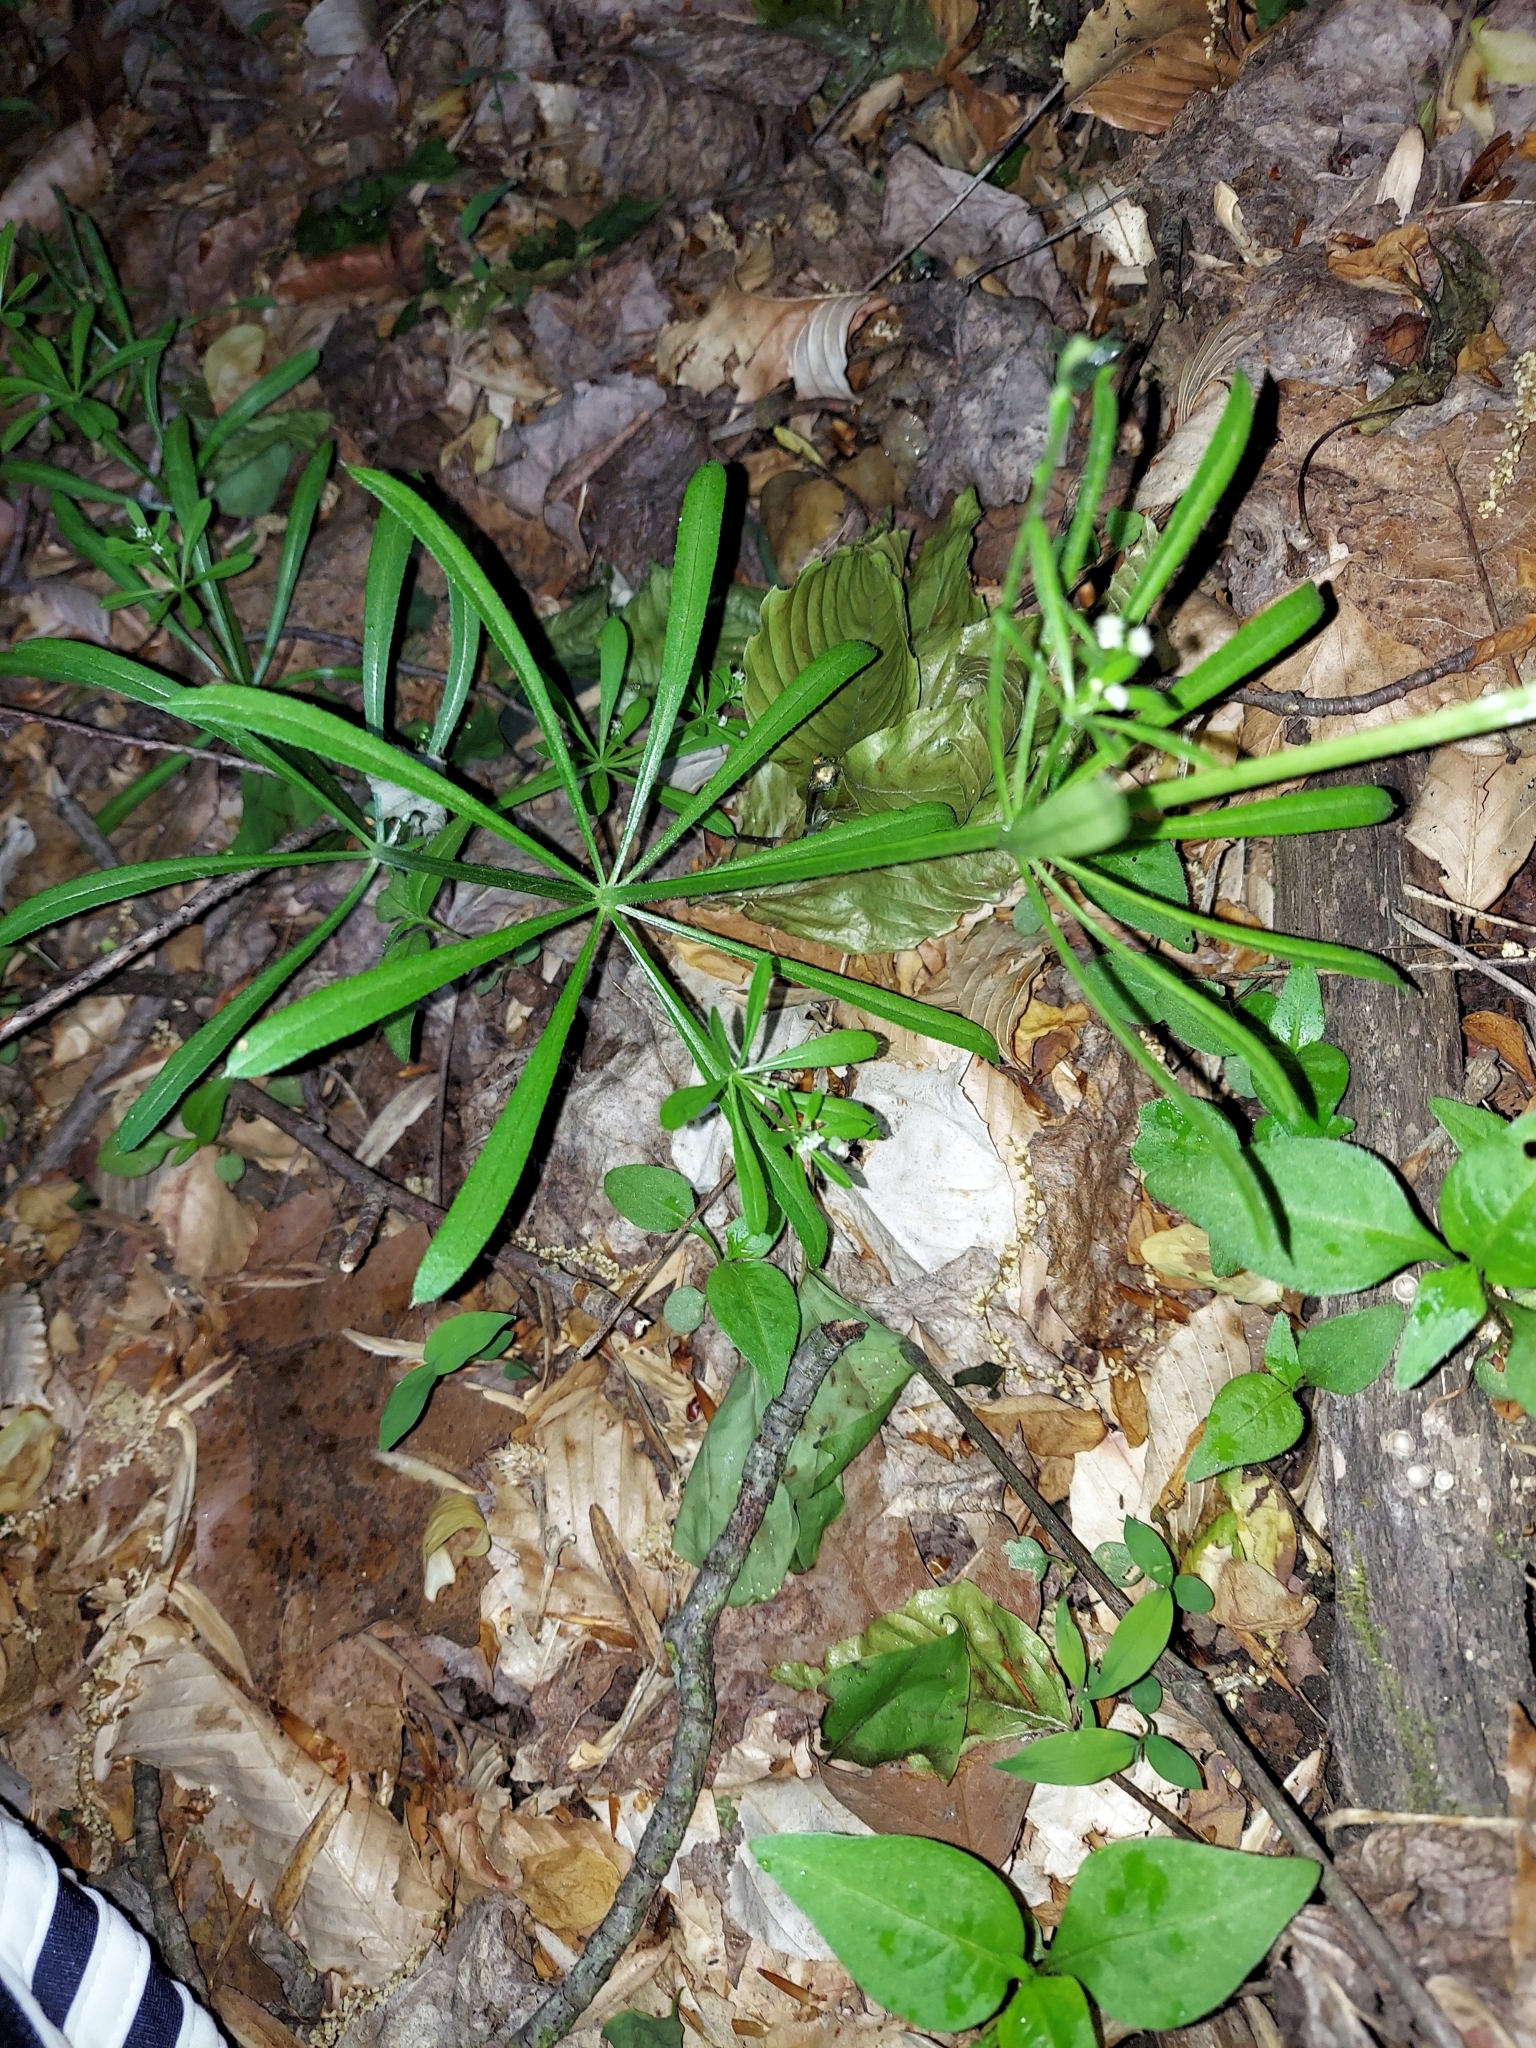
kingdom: Plantae
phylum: Tracheophyta
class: Magnoliopsida
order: Gentianales
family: Rubiaceae
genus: Galium
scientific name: Galium aparine
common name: Cleavers
